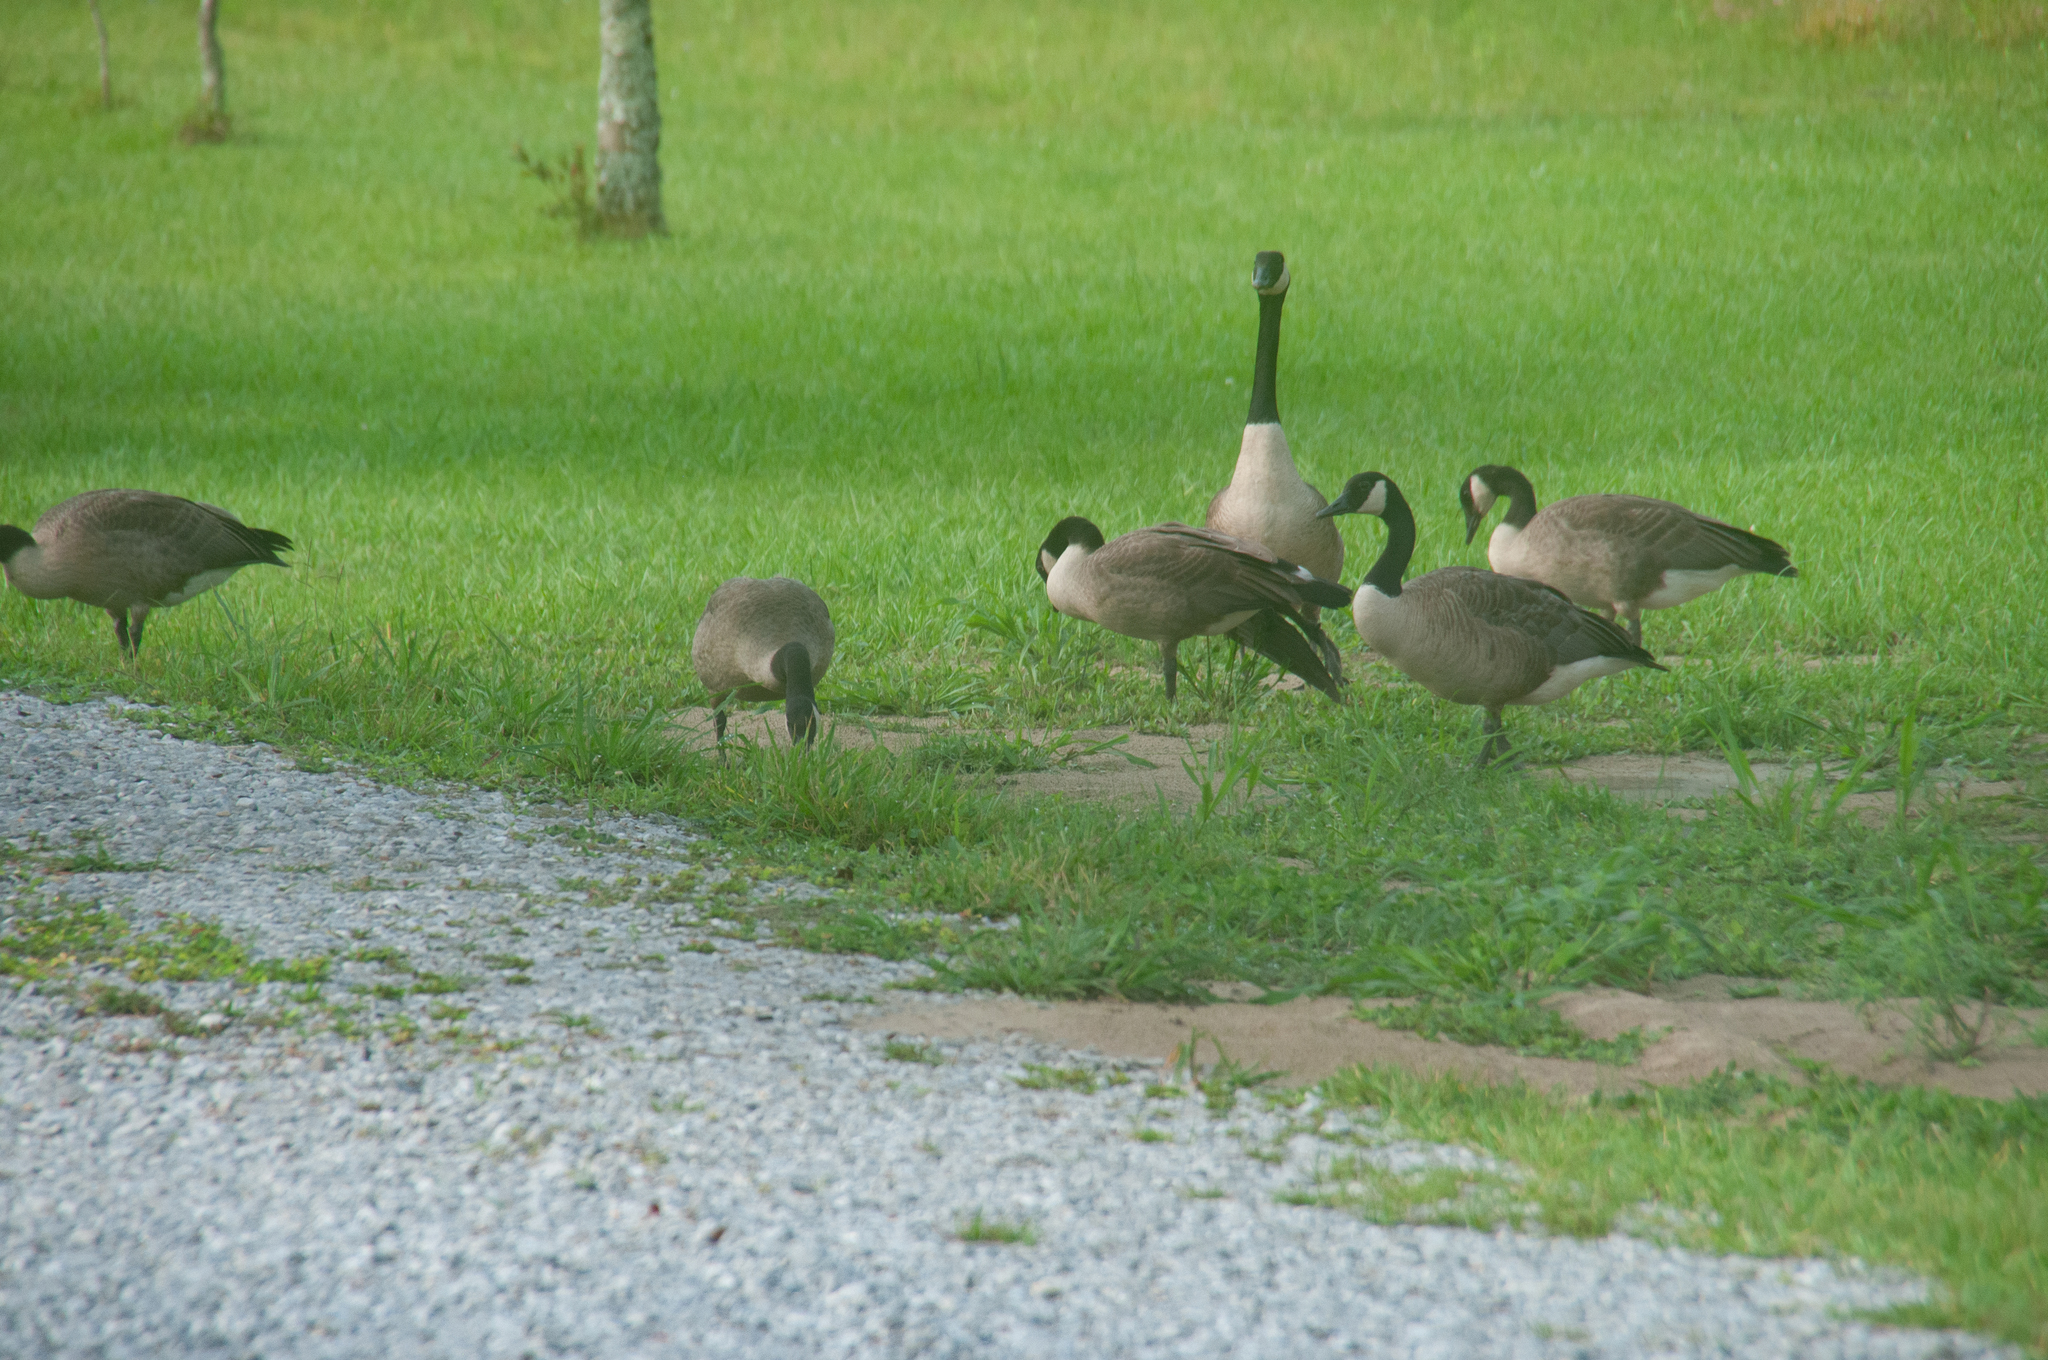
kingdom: Animalia
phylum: Chordata
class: Aves
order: Anseriformes
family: Anatidae
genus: Branta
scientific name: Branta canadensis
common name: Canada goose
